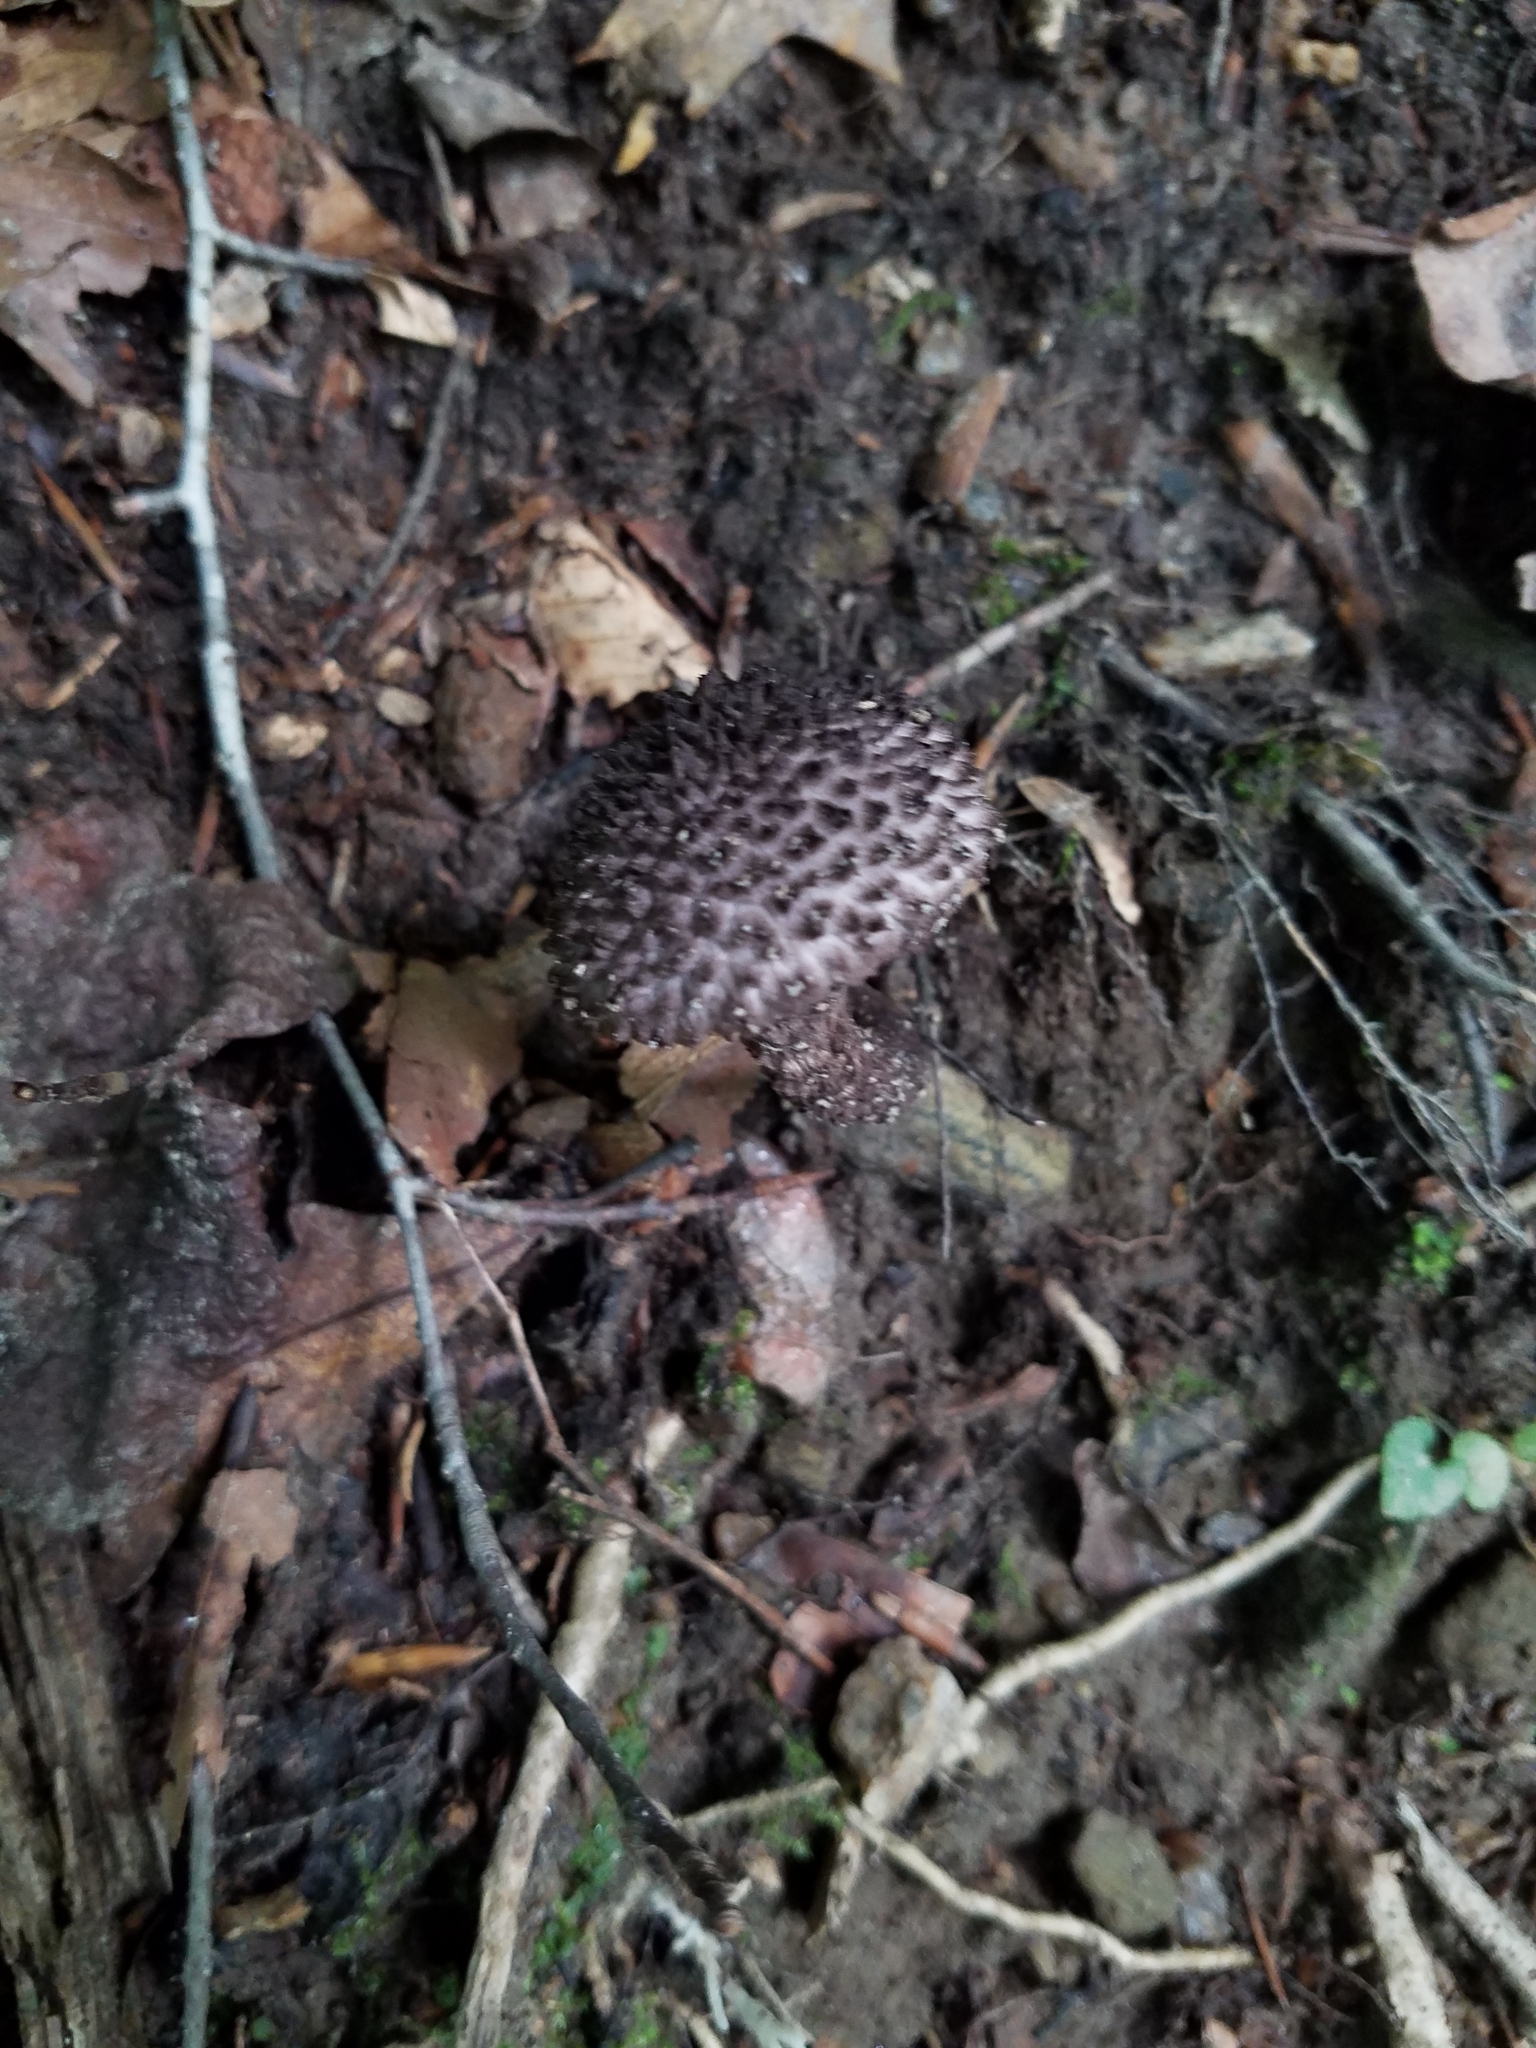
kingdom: Fungi
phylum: Basidiomycota
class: Agaricomycetes
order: Boletales
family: Boletaceae
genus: Strobilomyces
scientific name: Strobilomyces strobilaceus
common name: Old man of the woods
